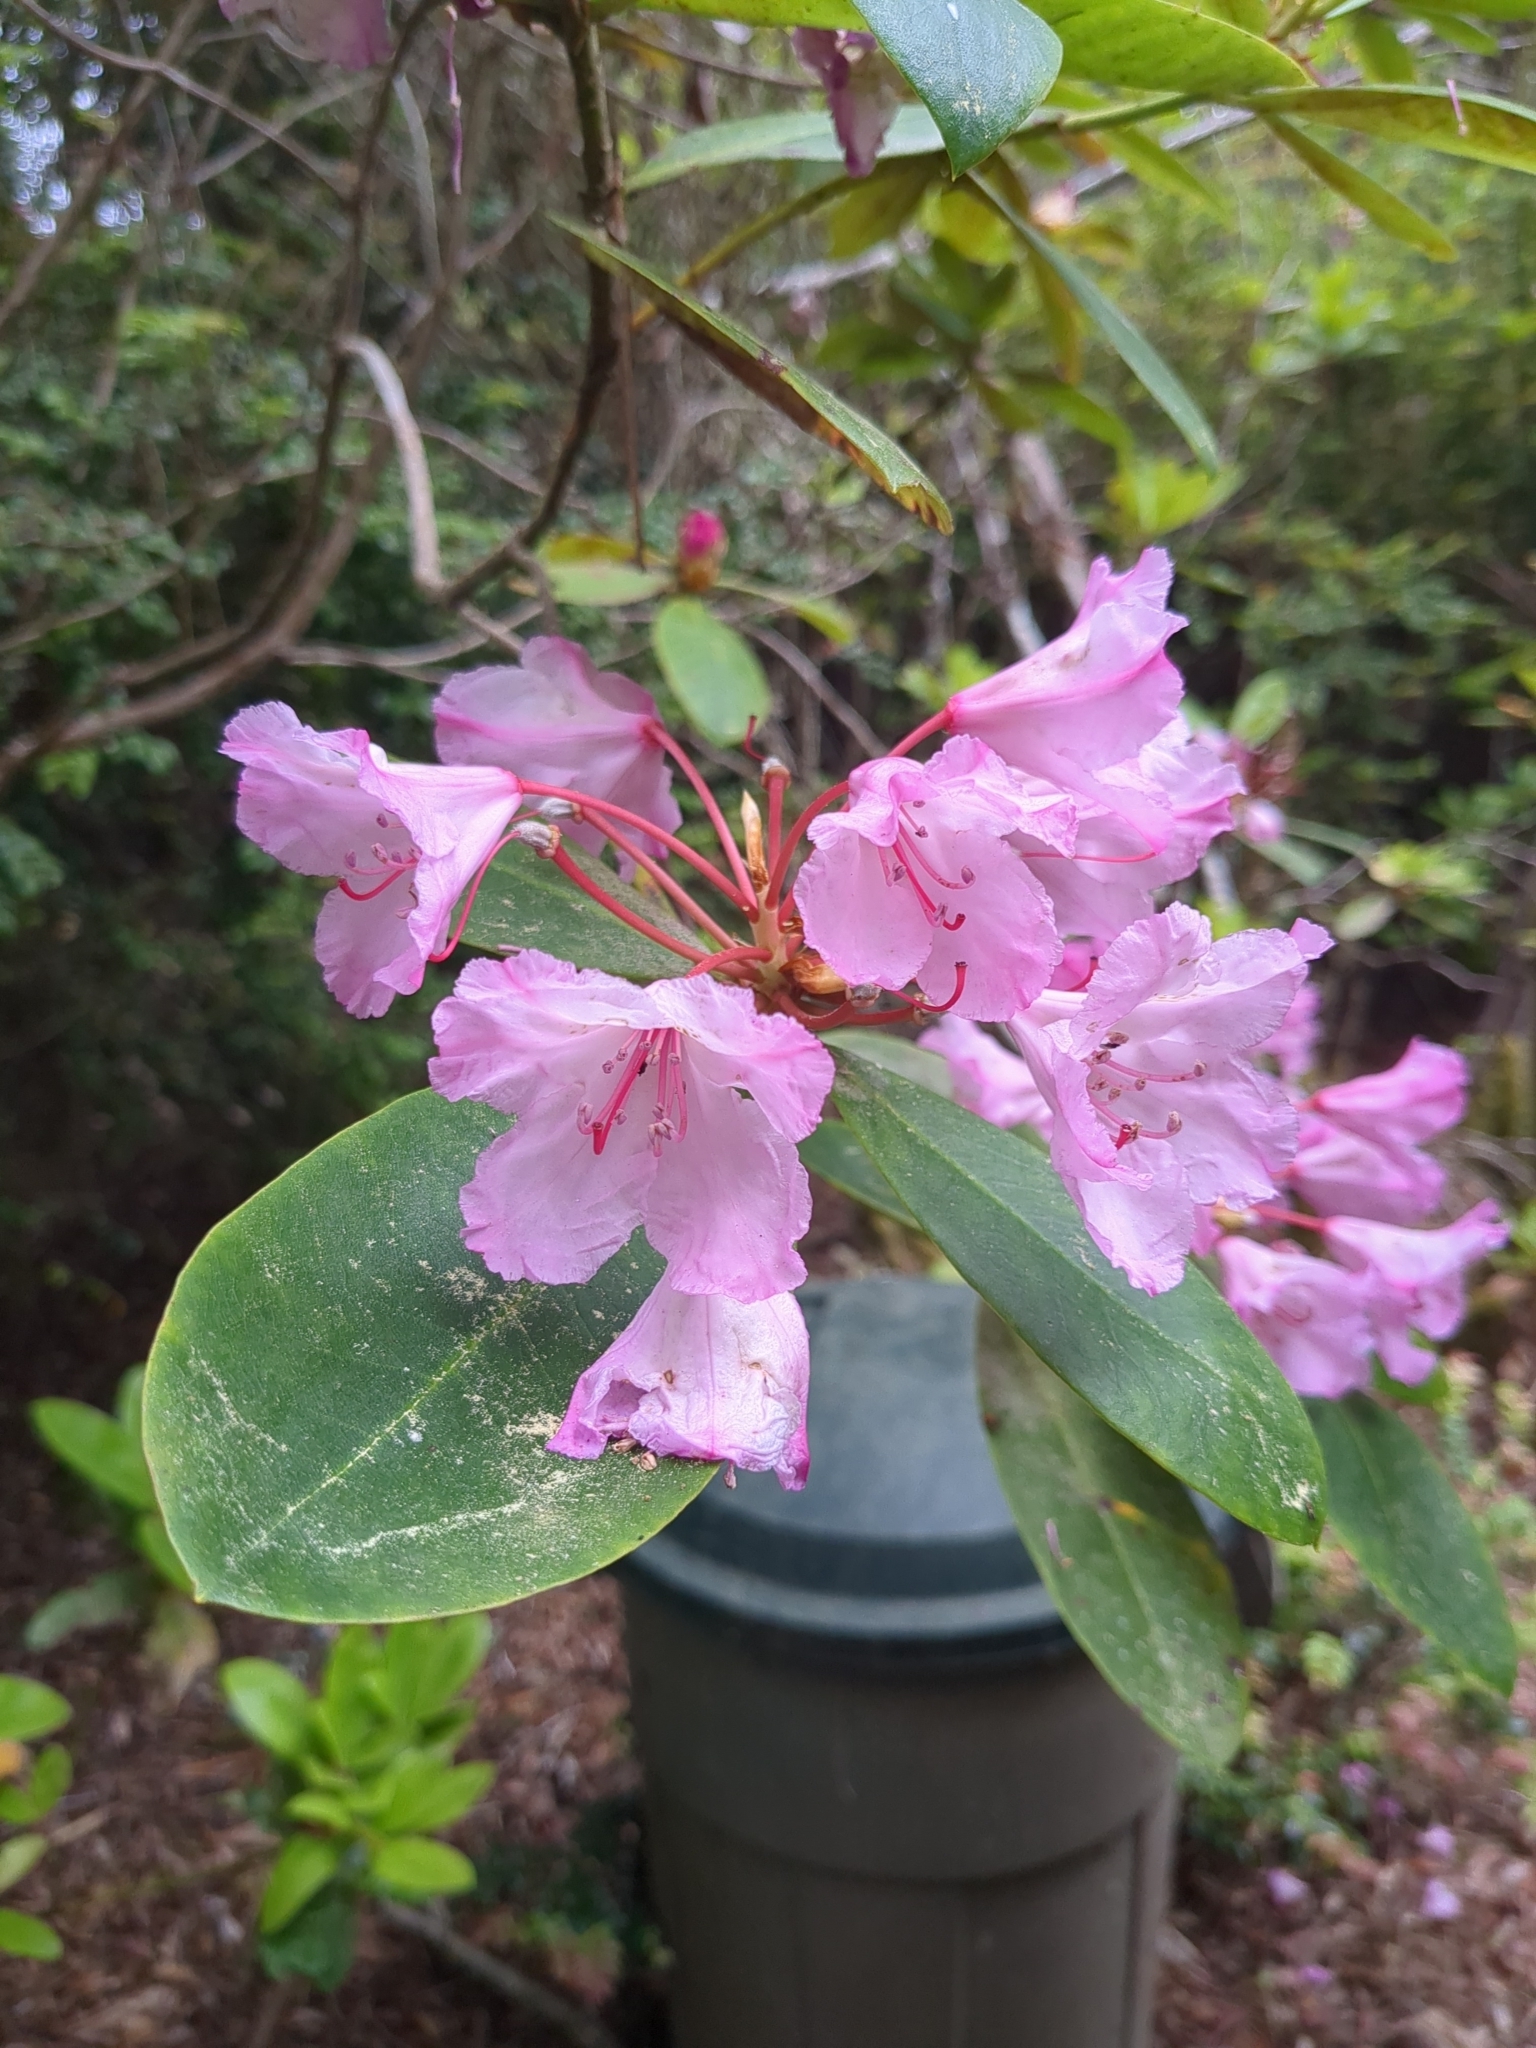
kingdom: Plantae
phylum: Tracheophyta
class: Magnoliopsida
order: Ericales
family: Ericaceae
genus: Rhododendron
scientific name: Rhododendron macrophyllum
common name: California rose bay
